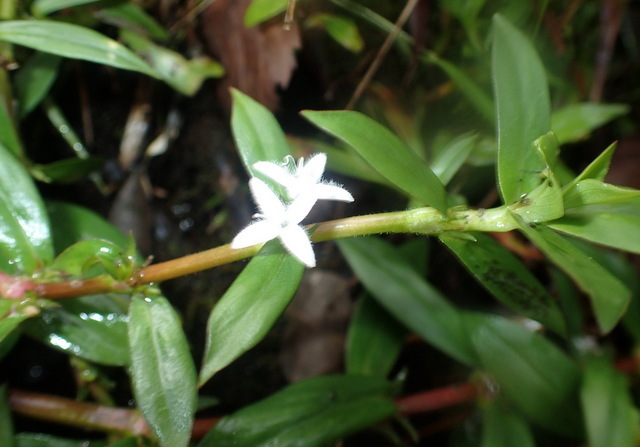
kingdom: Plantae
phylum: Tracheophyta
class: Magnoliopsida
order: Gentianales
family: Rubiaceae
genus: Diodia
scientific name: Diodia virginiana
